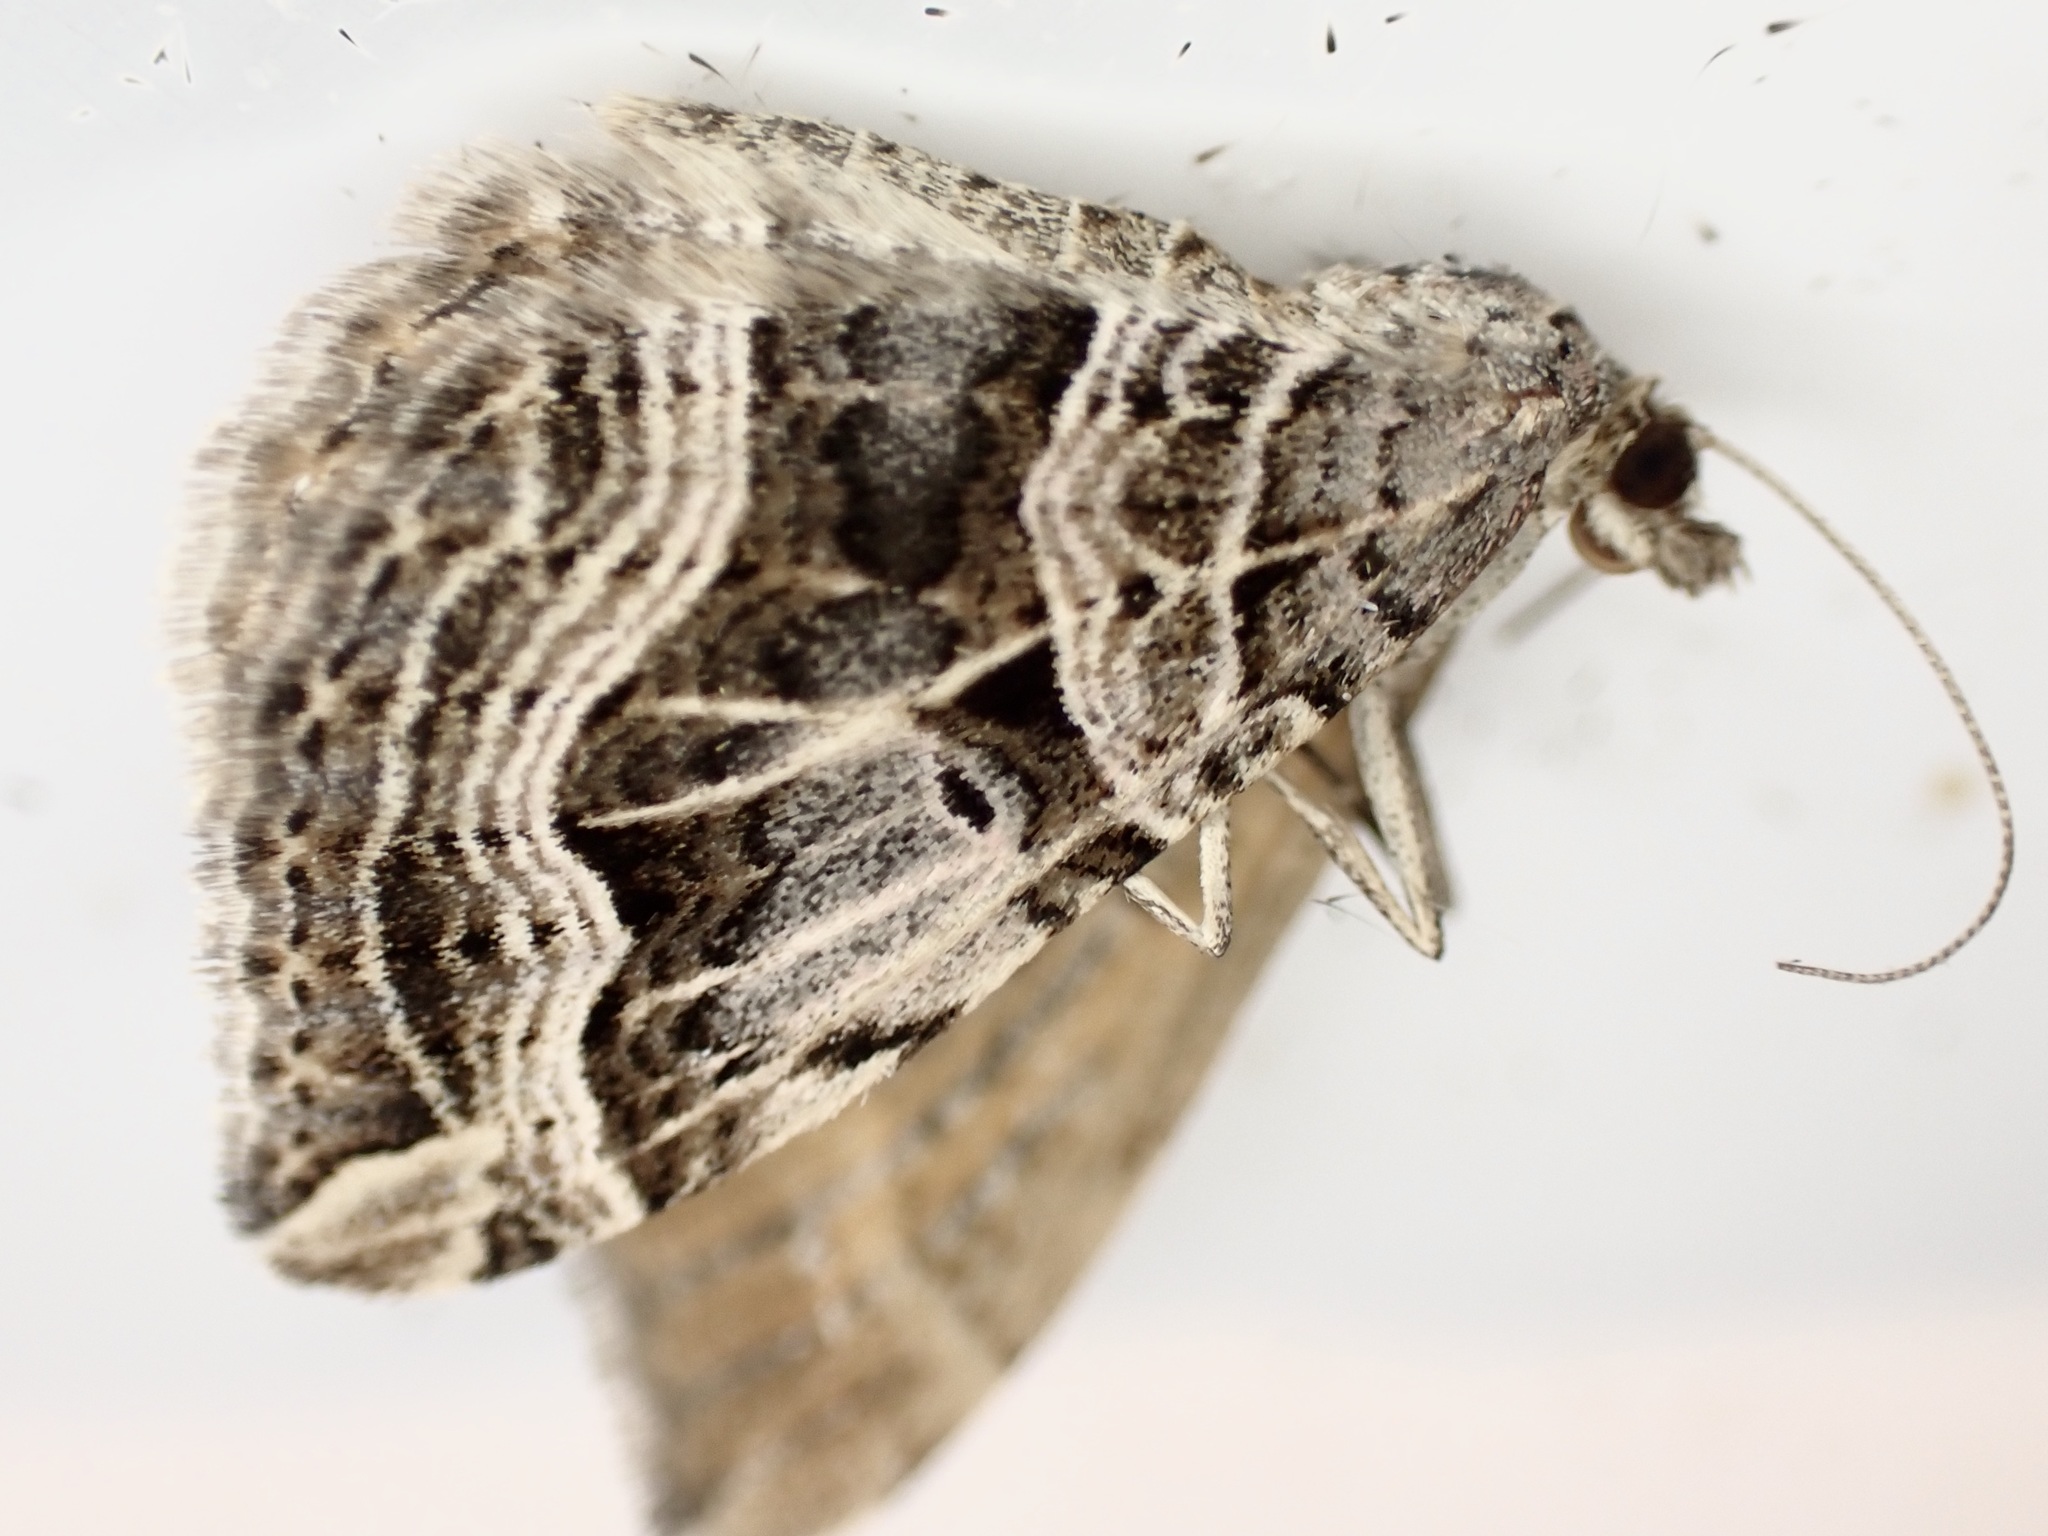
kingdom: Animalia
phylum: Arthropoda
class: Insecta
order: Lepidoptera
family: Geometridae
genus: Xanthorhoe
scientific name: Xanthorhoe semifissata
